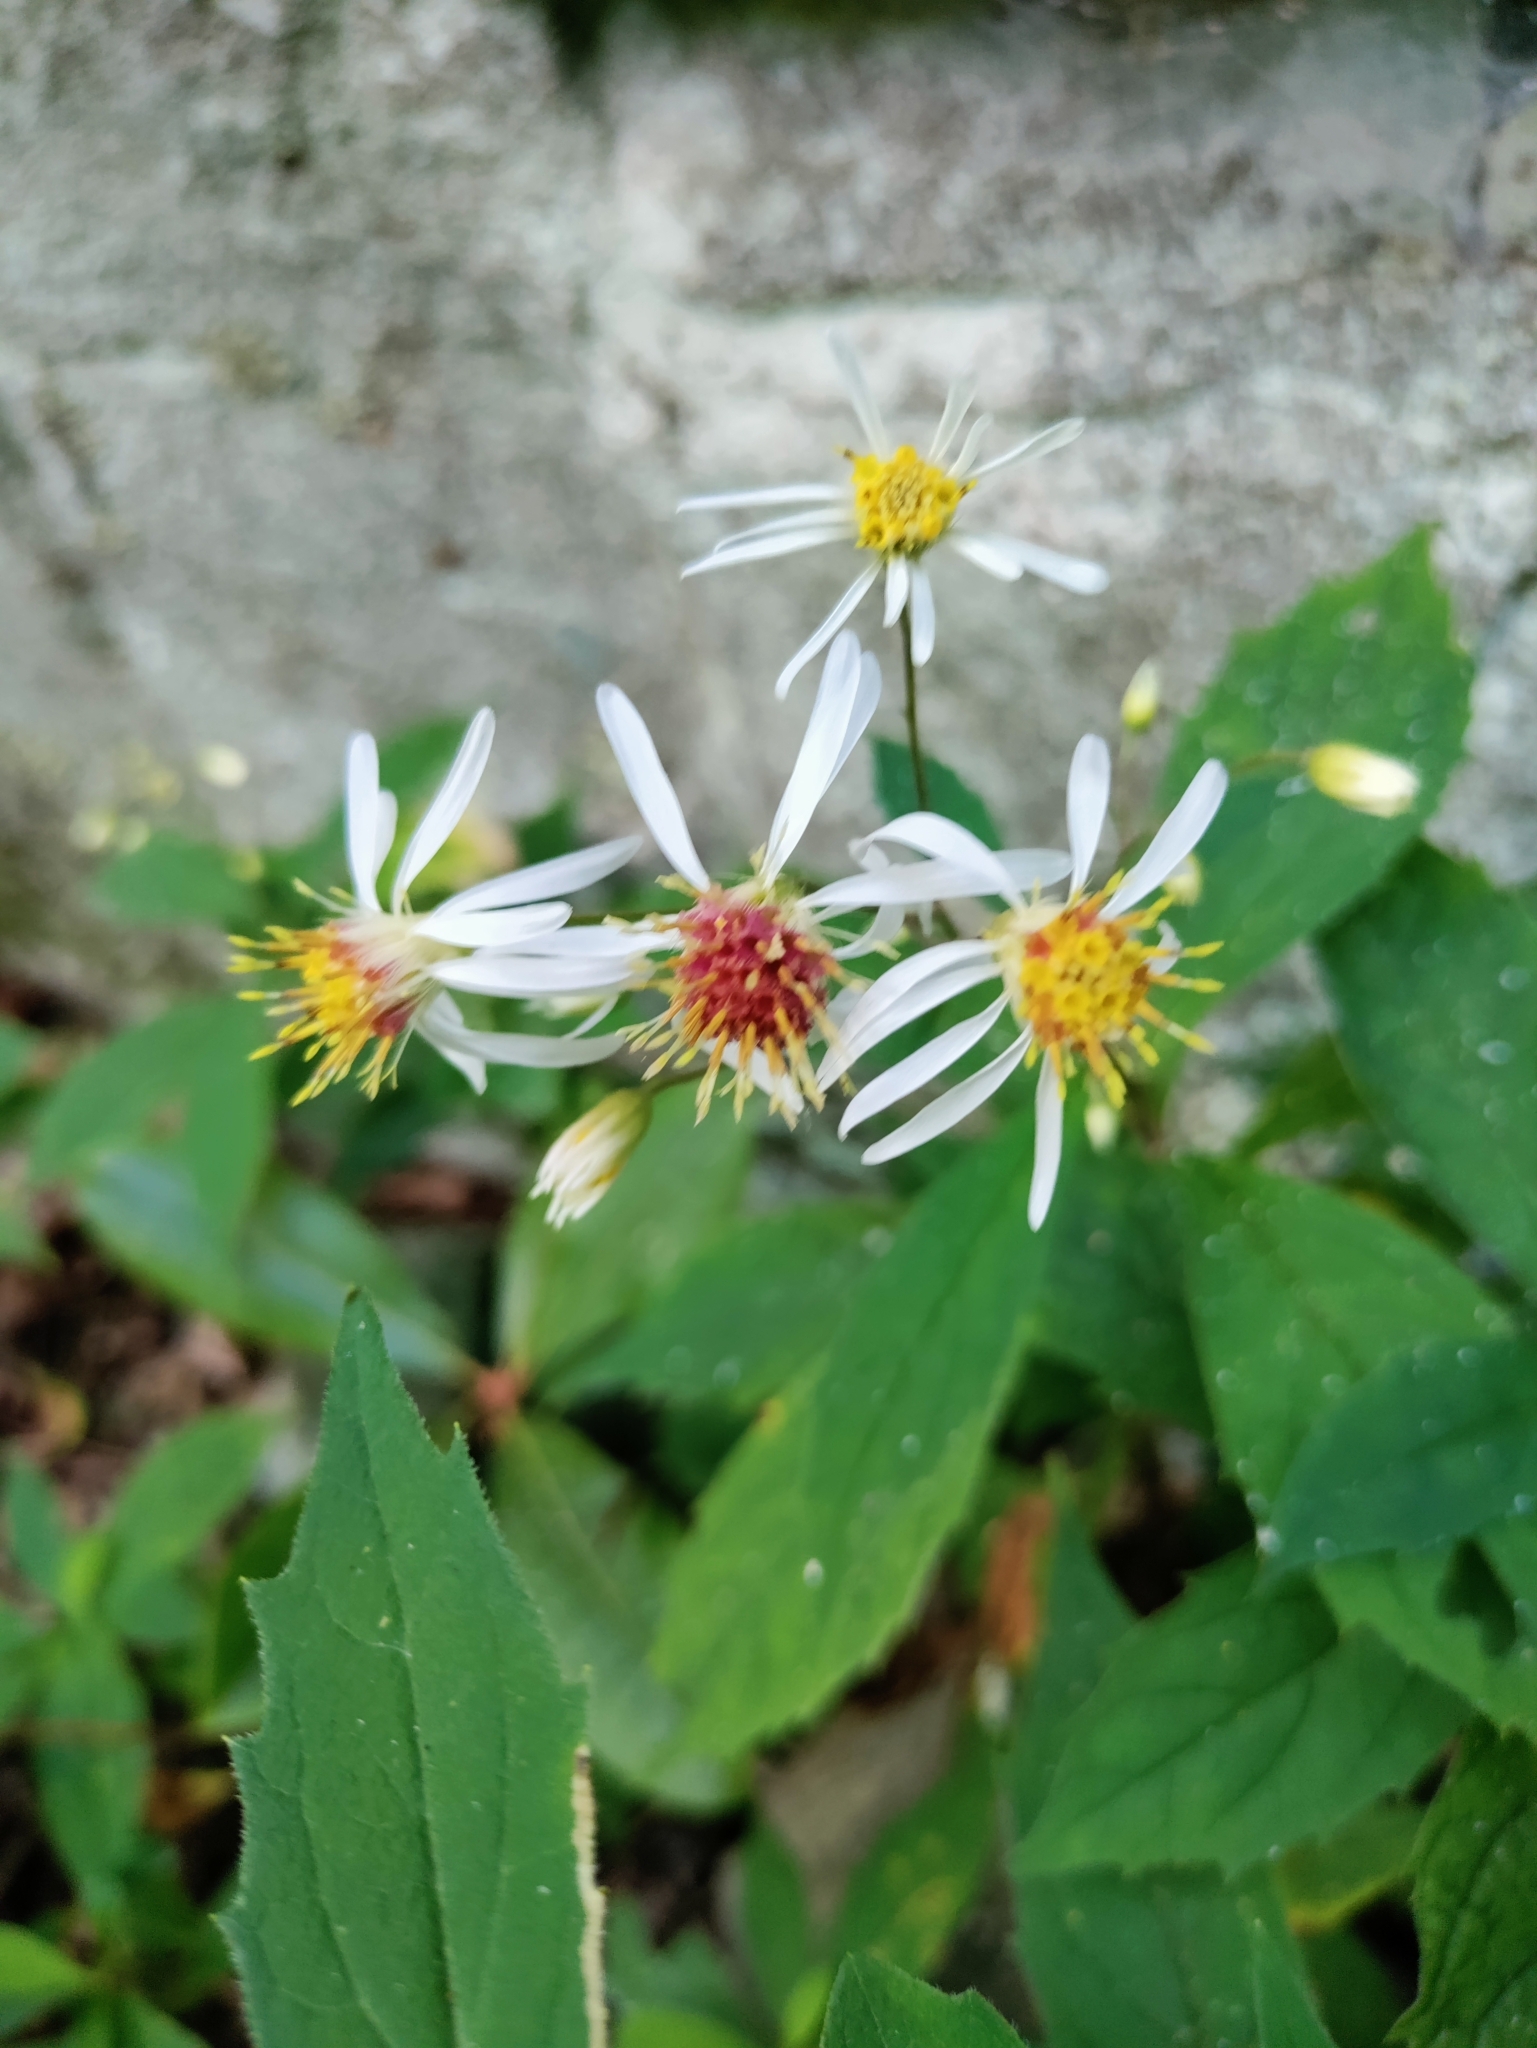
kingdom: Plantae
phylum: Tracheophyta
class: Magnoliopsida
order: Asterales
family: Asteraceae
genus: Oclemena
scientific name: Oclemena acuminata
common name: Mountain aster
